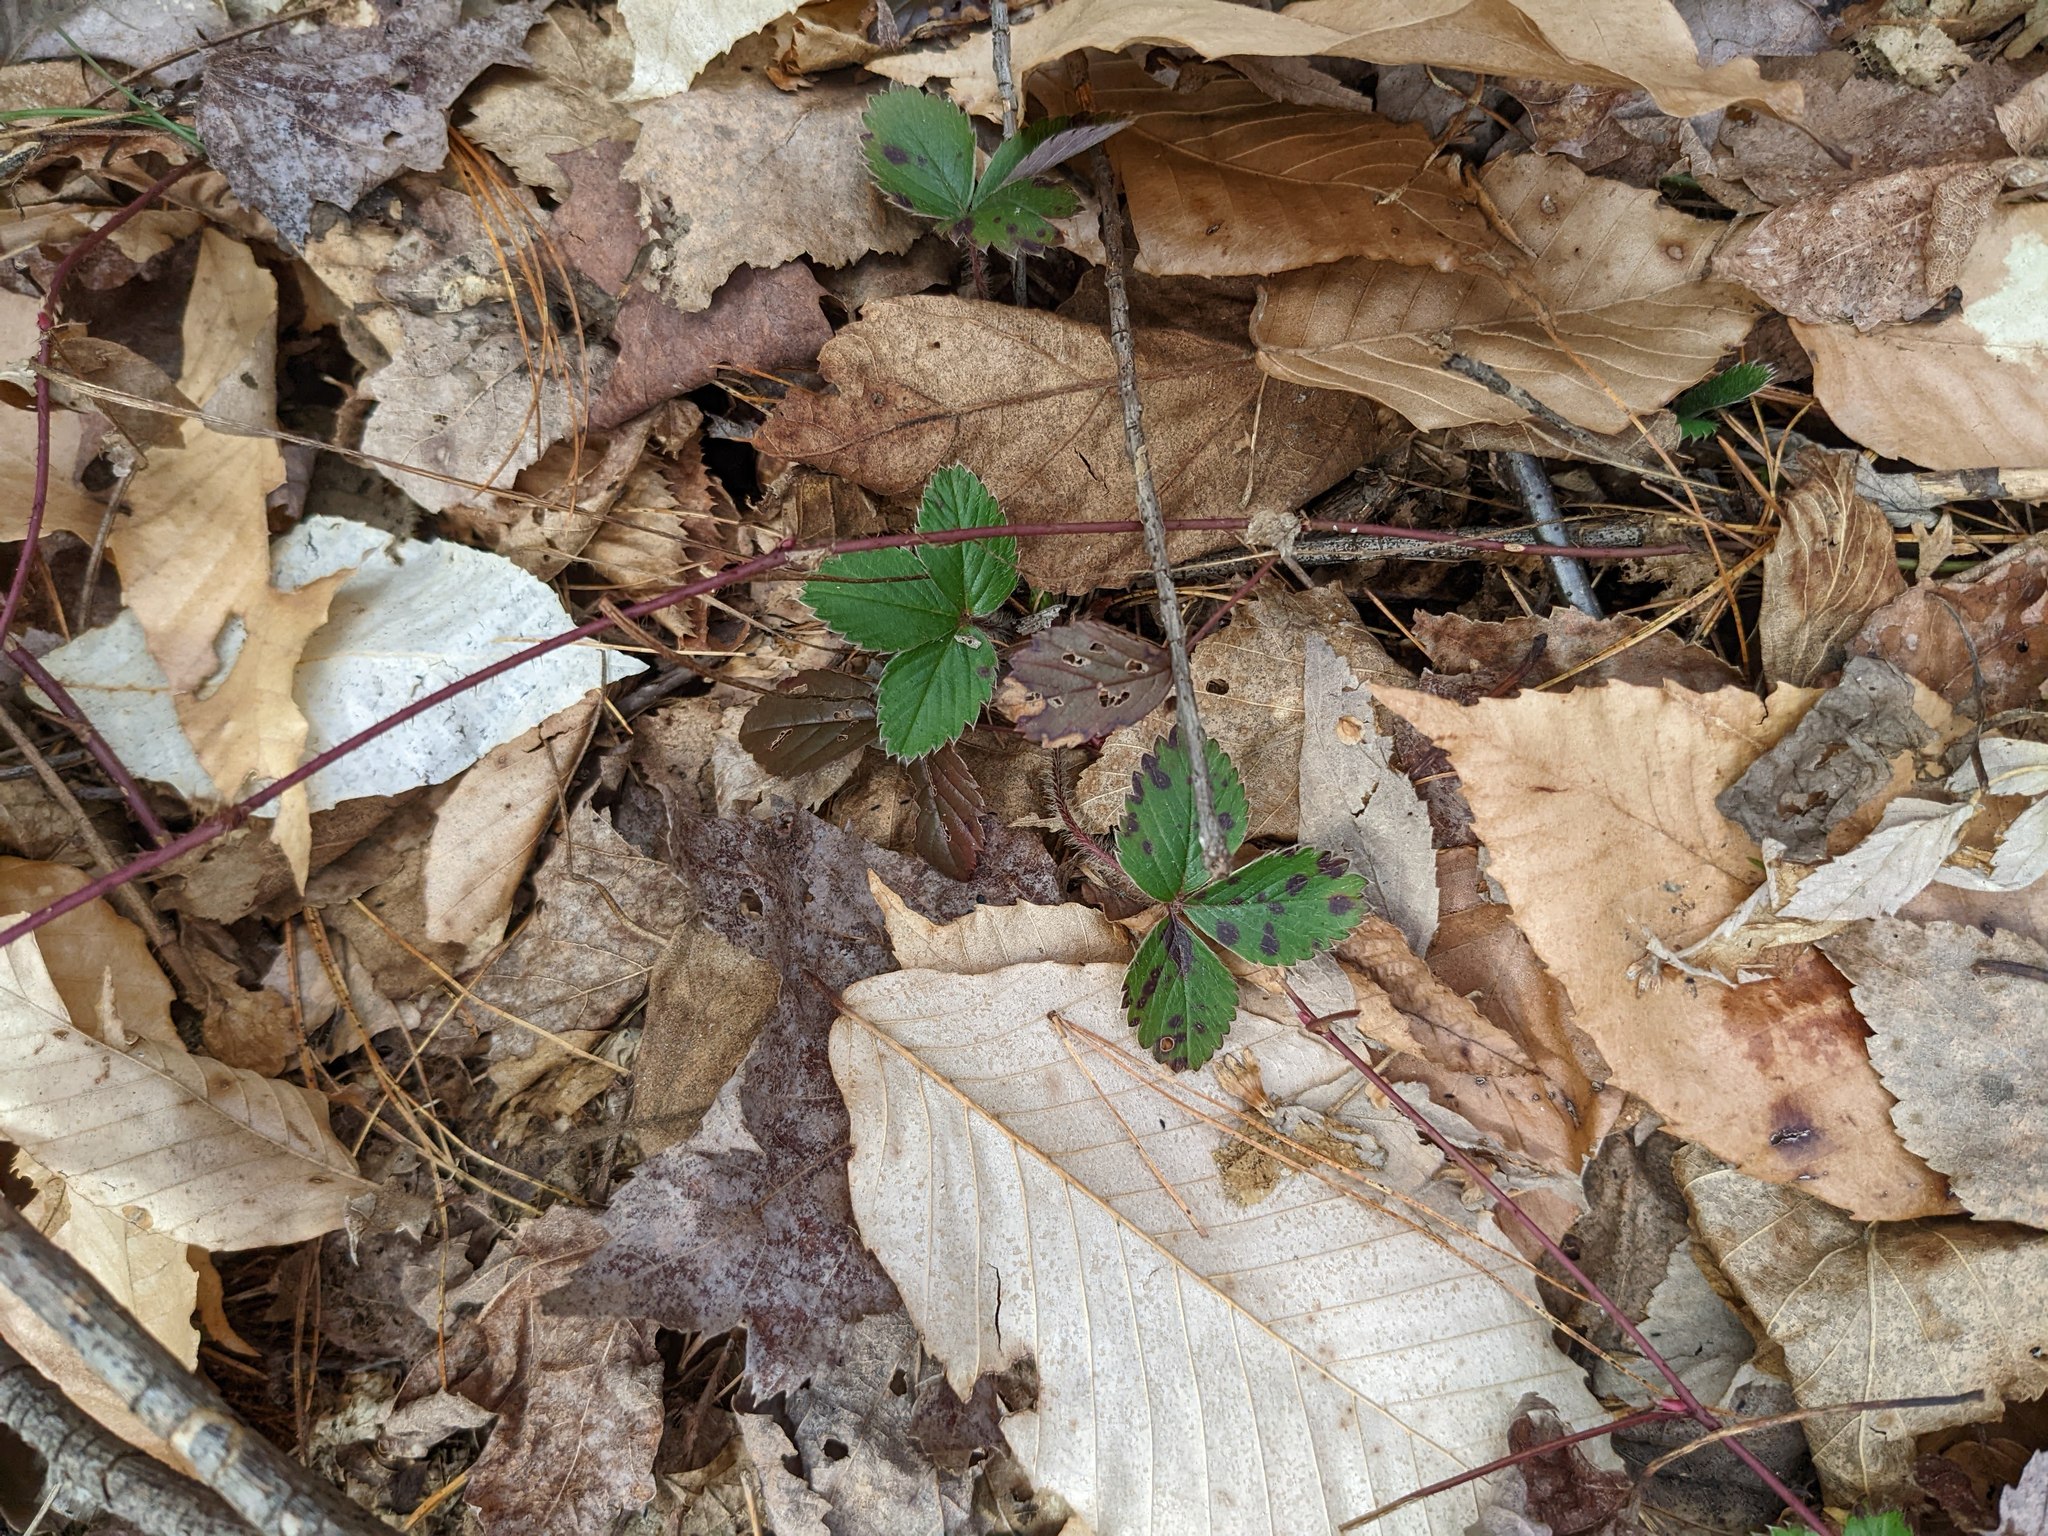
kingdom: Plantae
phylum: Tracheophyta
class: Magnoliopsida
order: Fagales
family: Fagaceae
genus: Fagus
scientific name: Fagus grandifolia
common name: American beech
